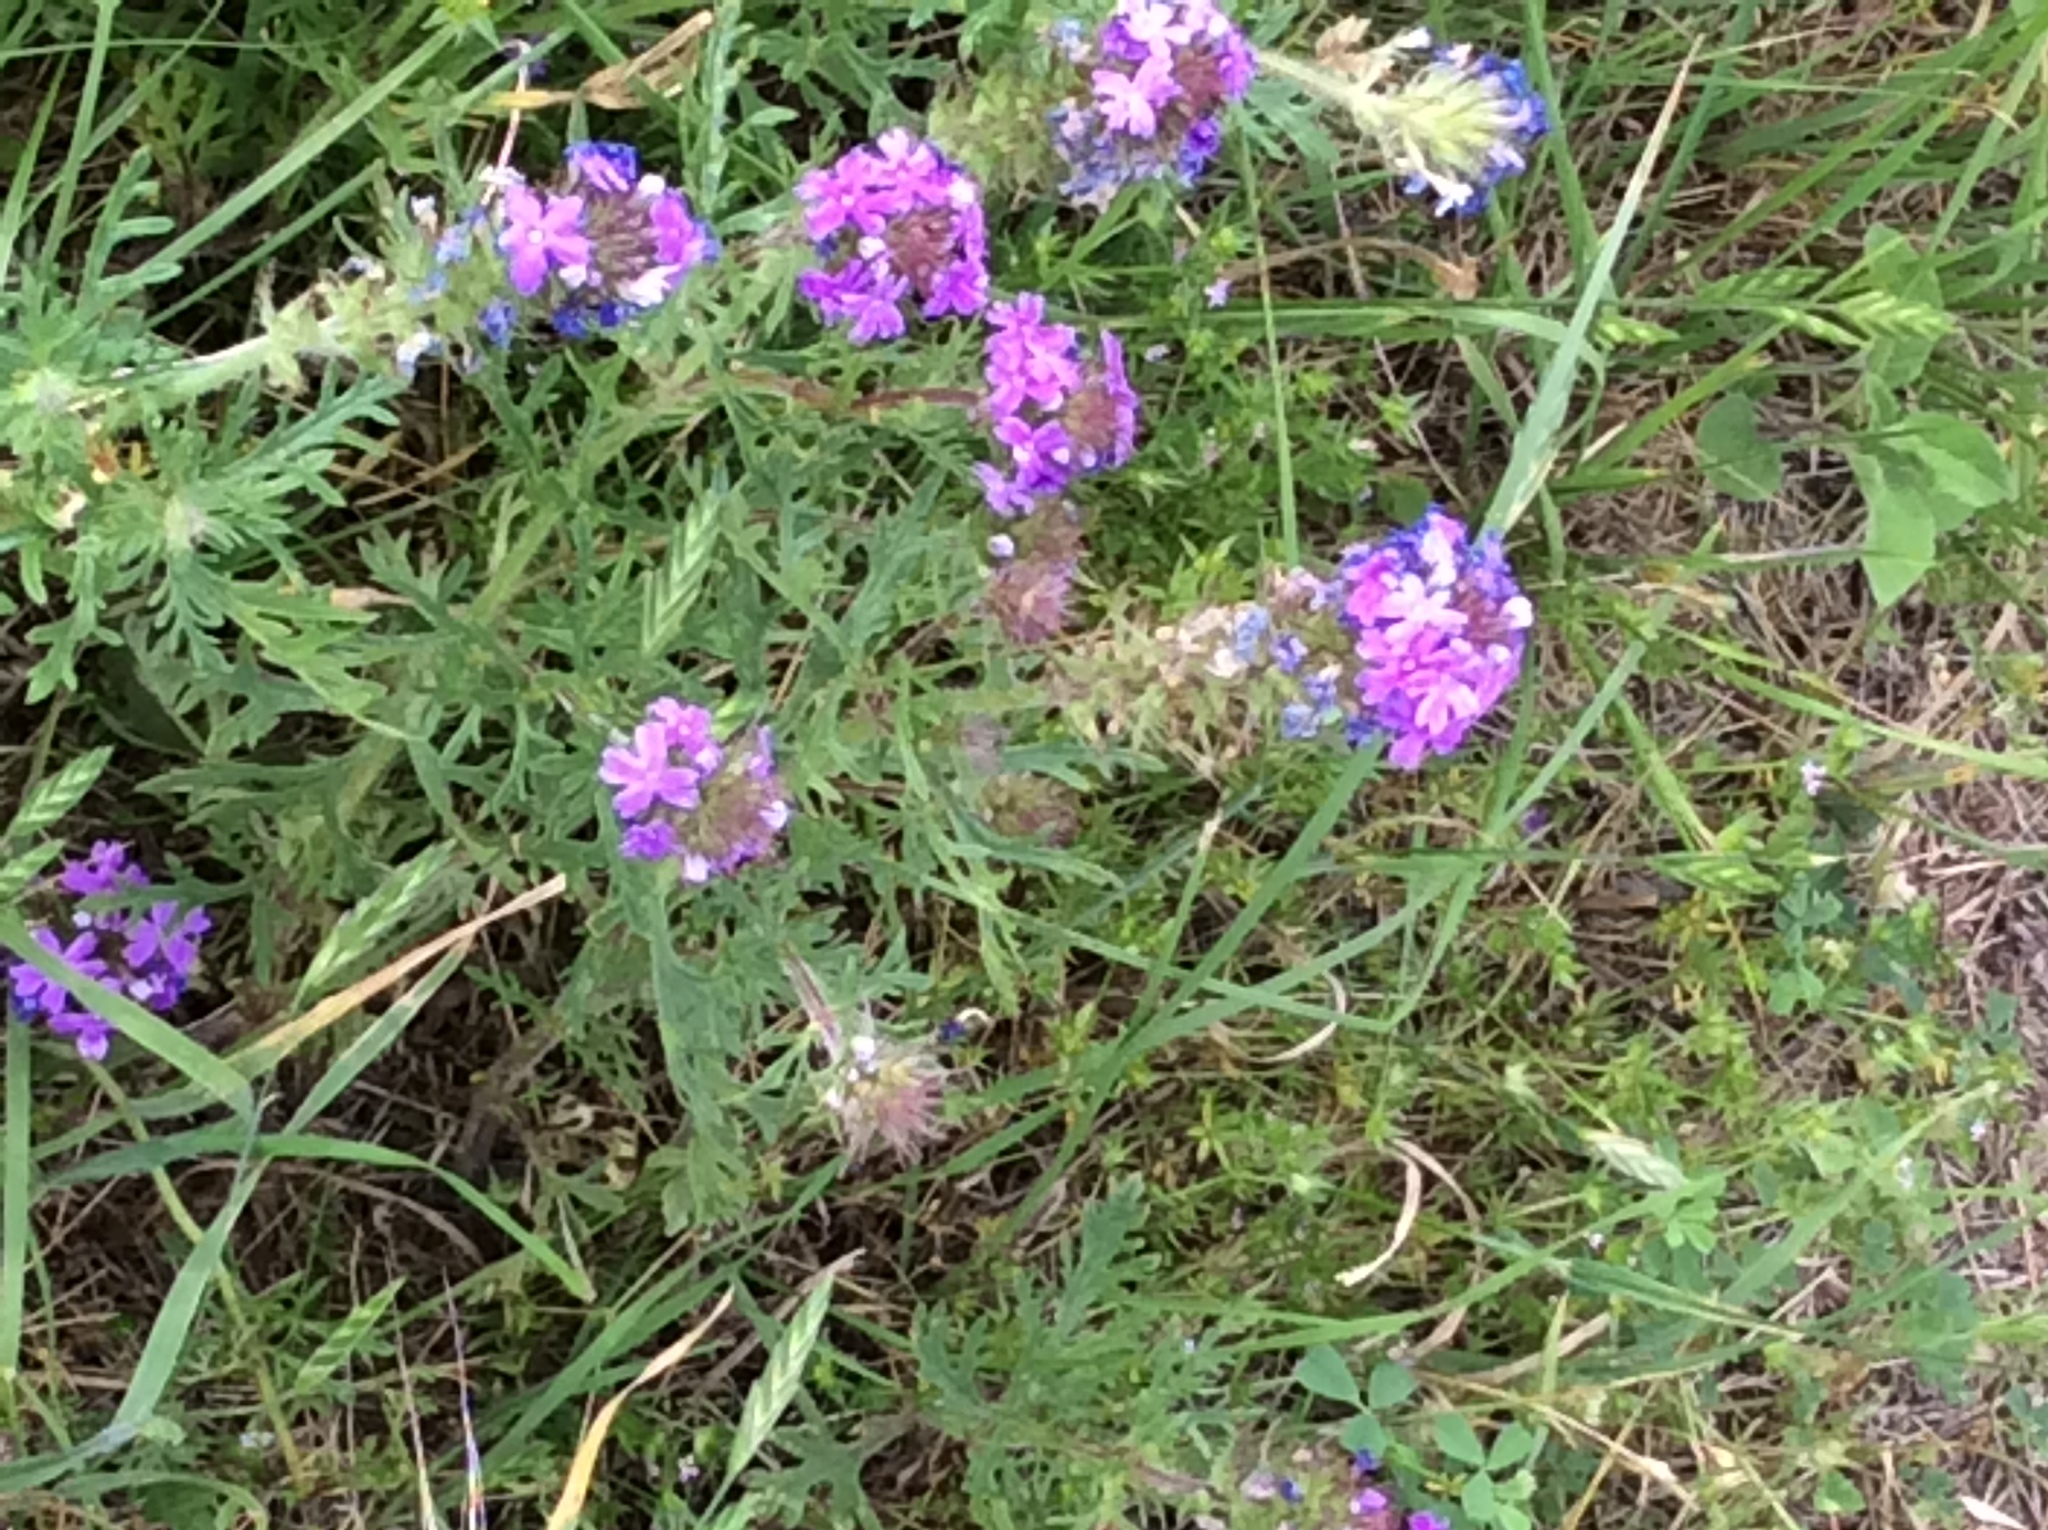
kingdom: Plantae
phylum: Tracheophyta
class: Magnoliopsida
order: Lamiales
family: Verbenaceae
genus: Verbena
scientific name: Verbena bipinnatifida
